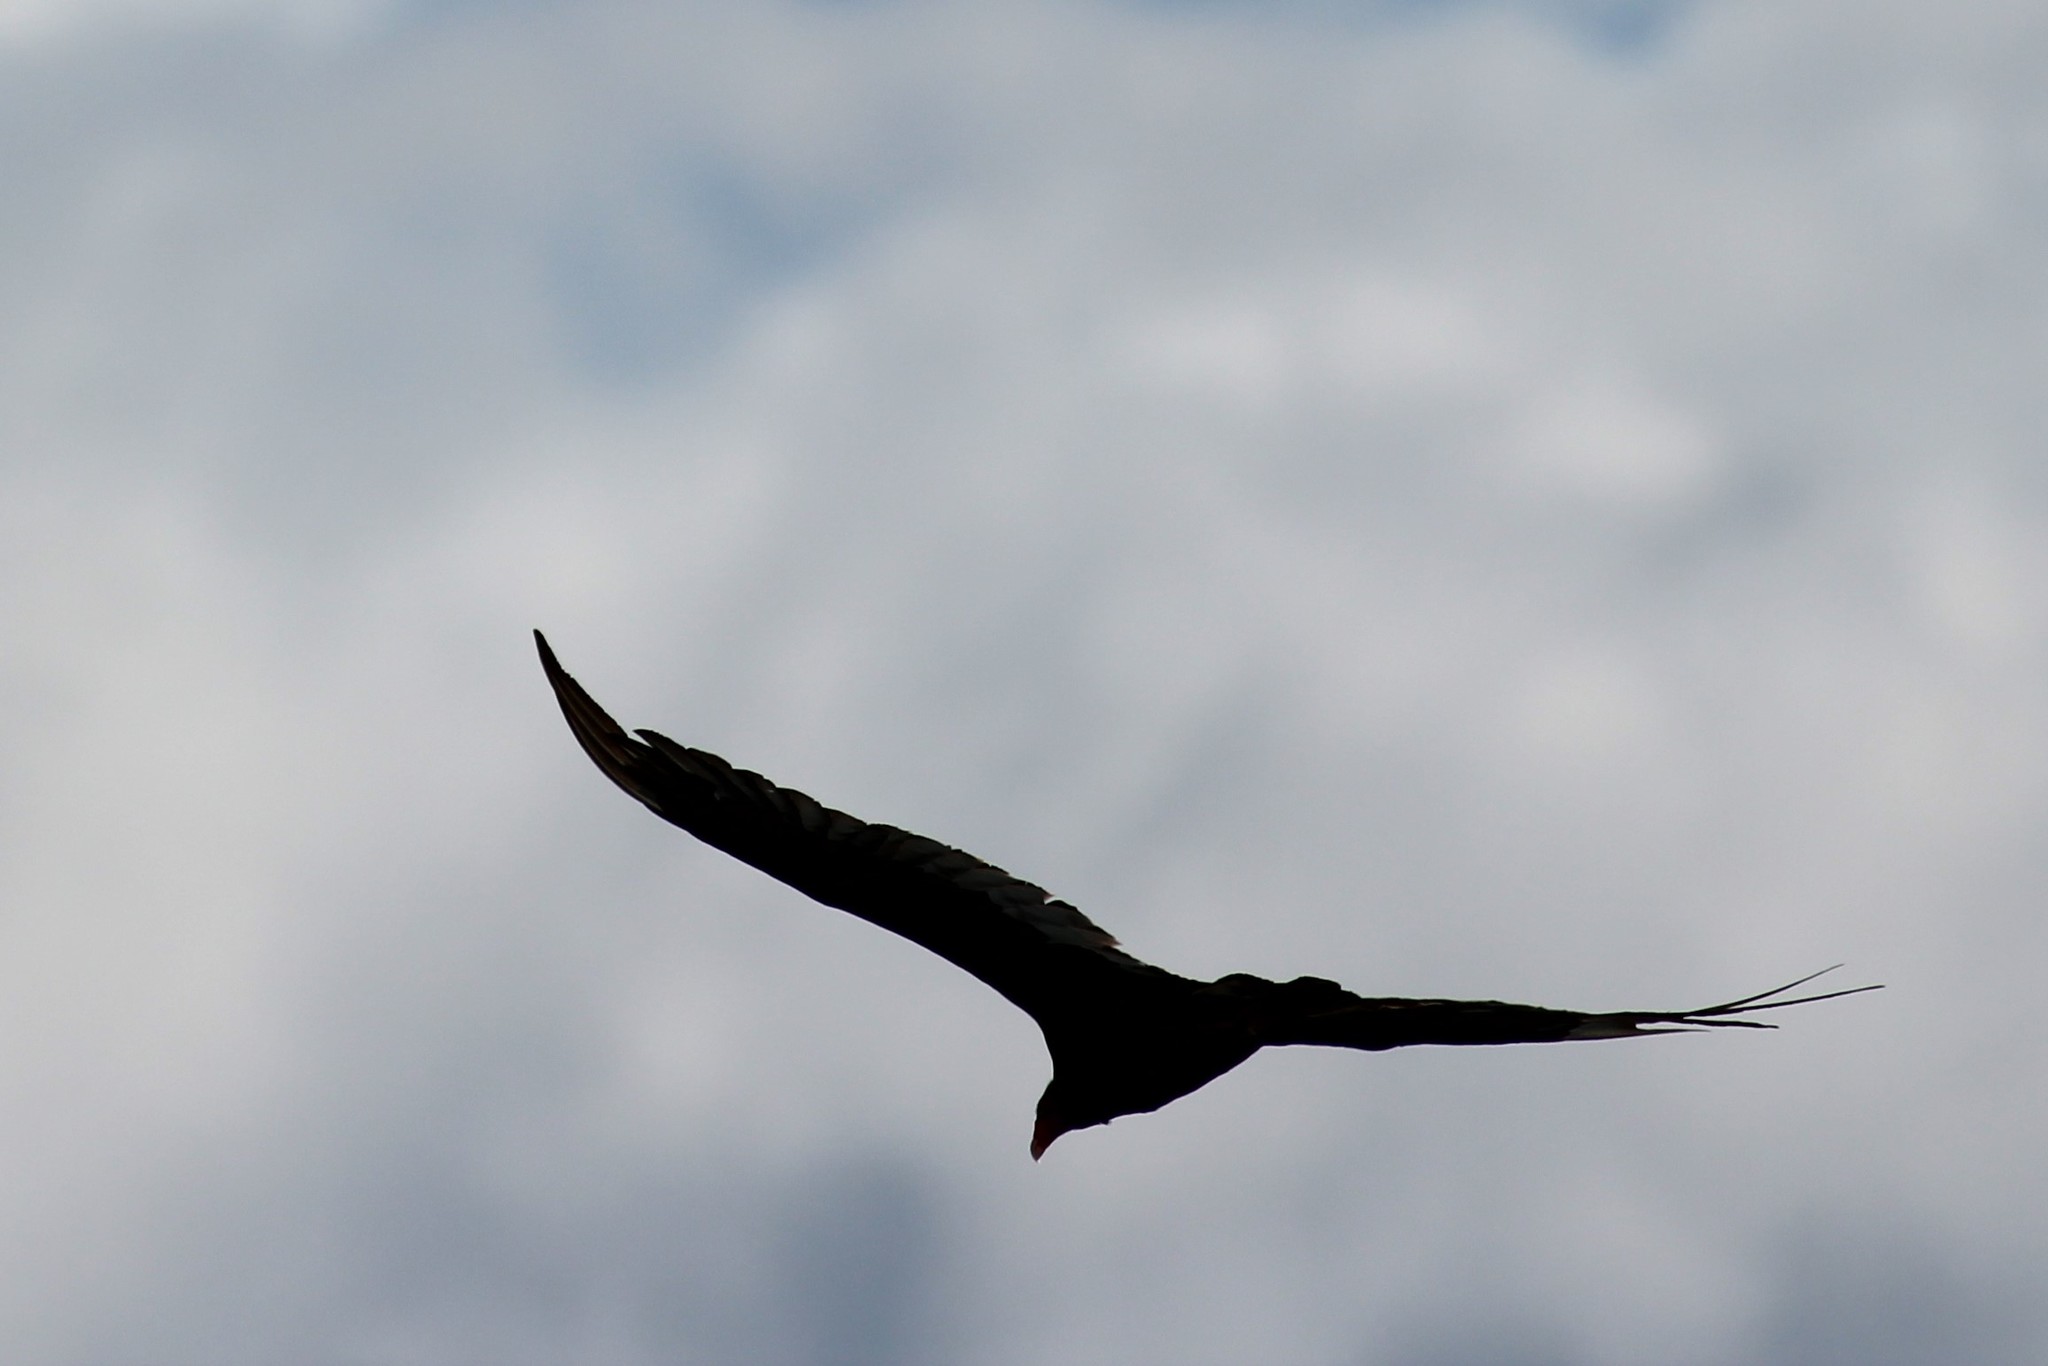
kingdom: Animalia
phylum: Chordata
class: Aves
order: Accipitriformes
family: Cathartidae
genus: Cathartes
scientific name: Cathartes aura
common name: Turkey vulture
